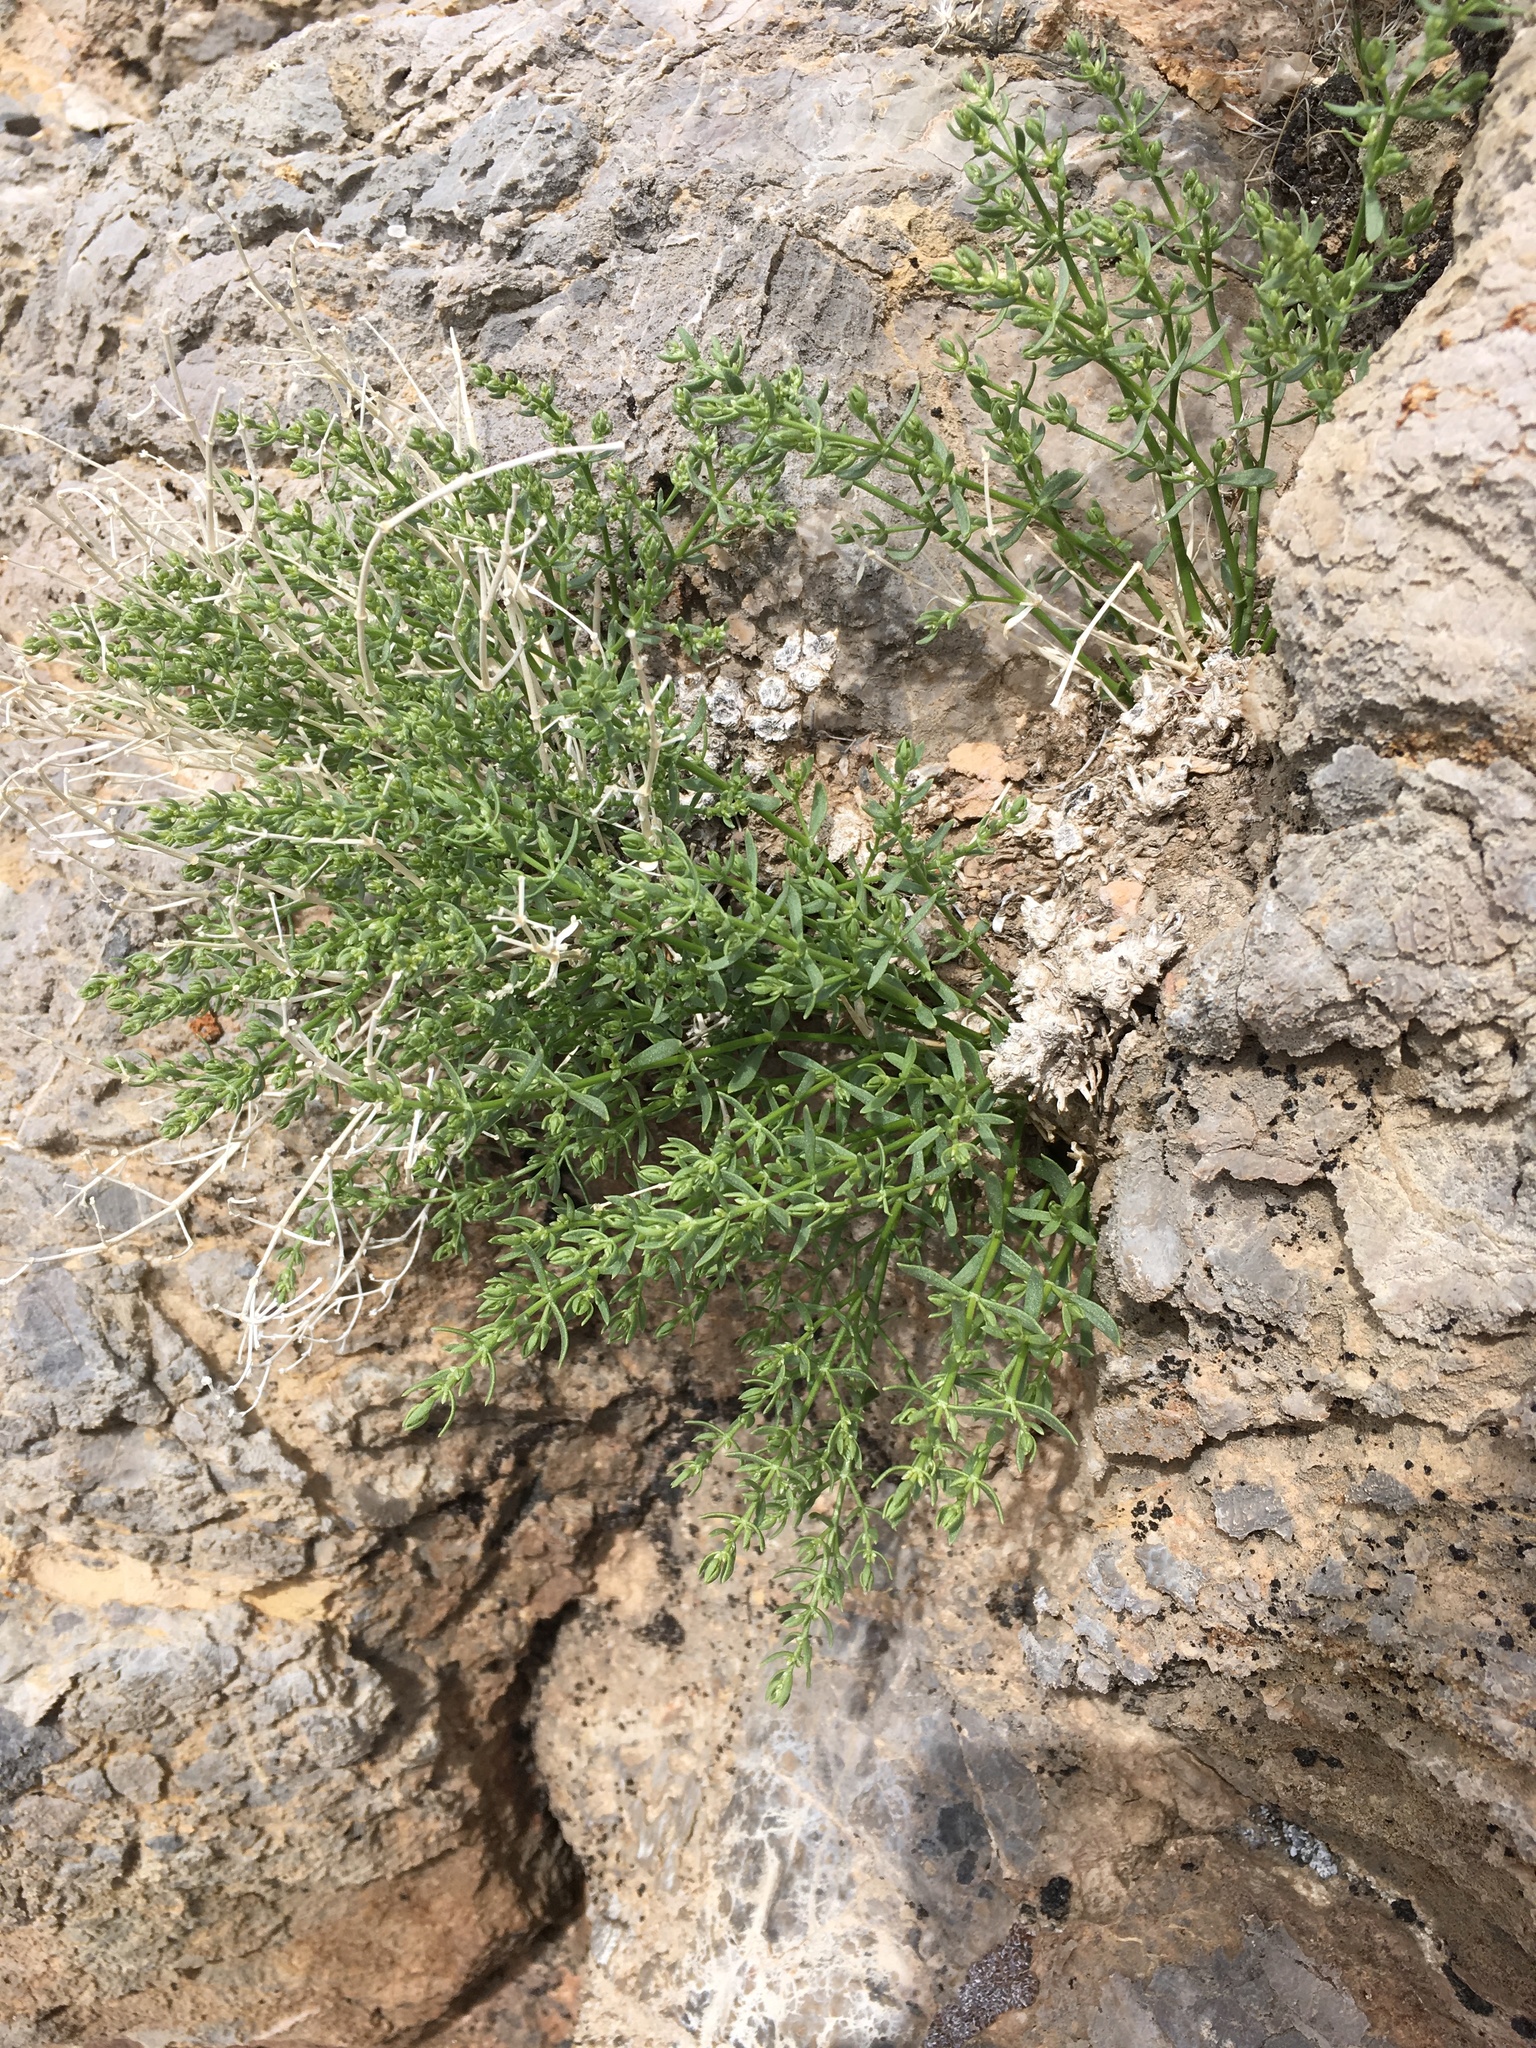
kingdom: Plantae
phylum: Tracheophyta
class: Magnoliopsida
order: Caryophyllales
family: Caryophyllaceae
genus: Scopulophila
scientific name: Scopulophila rixfordii
